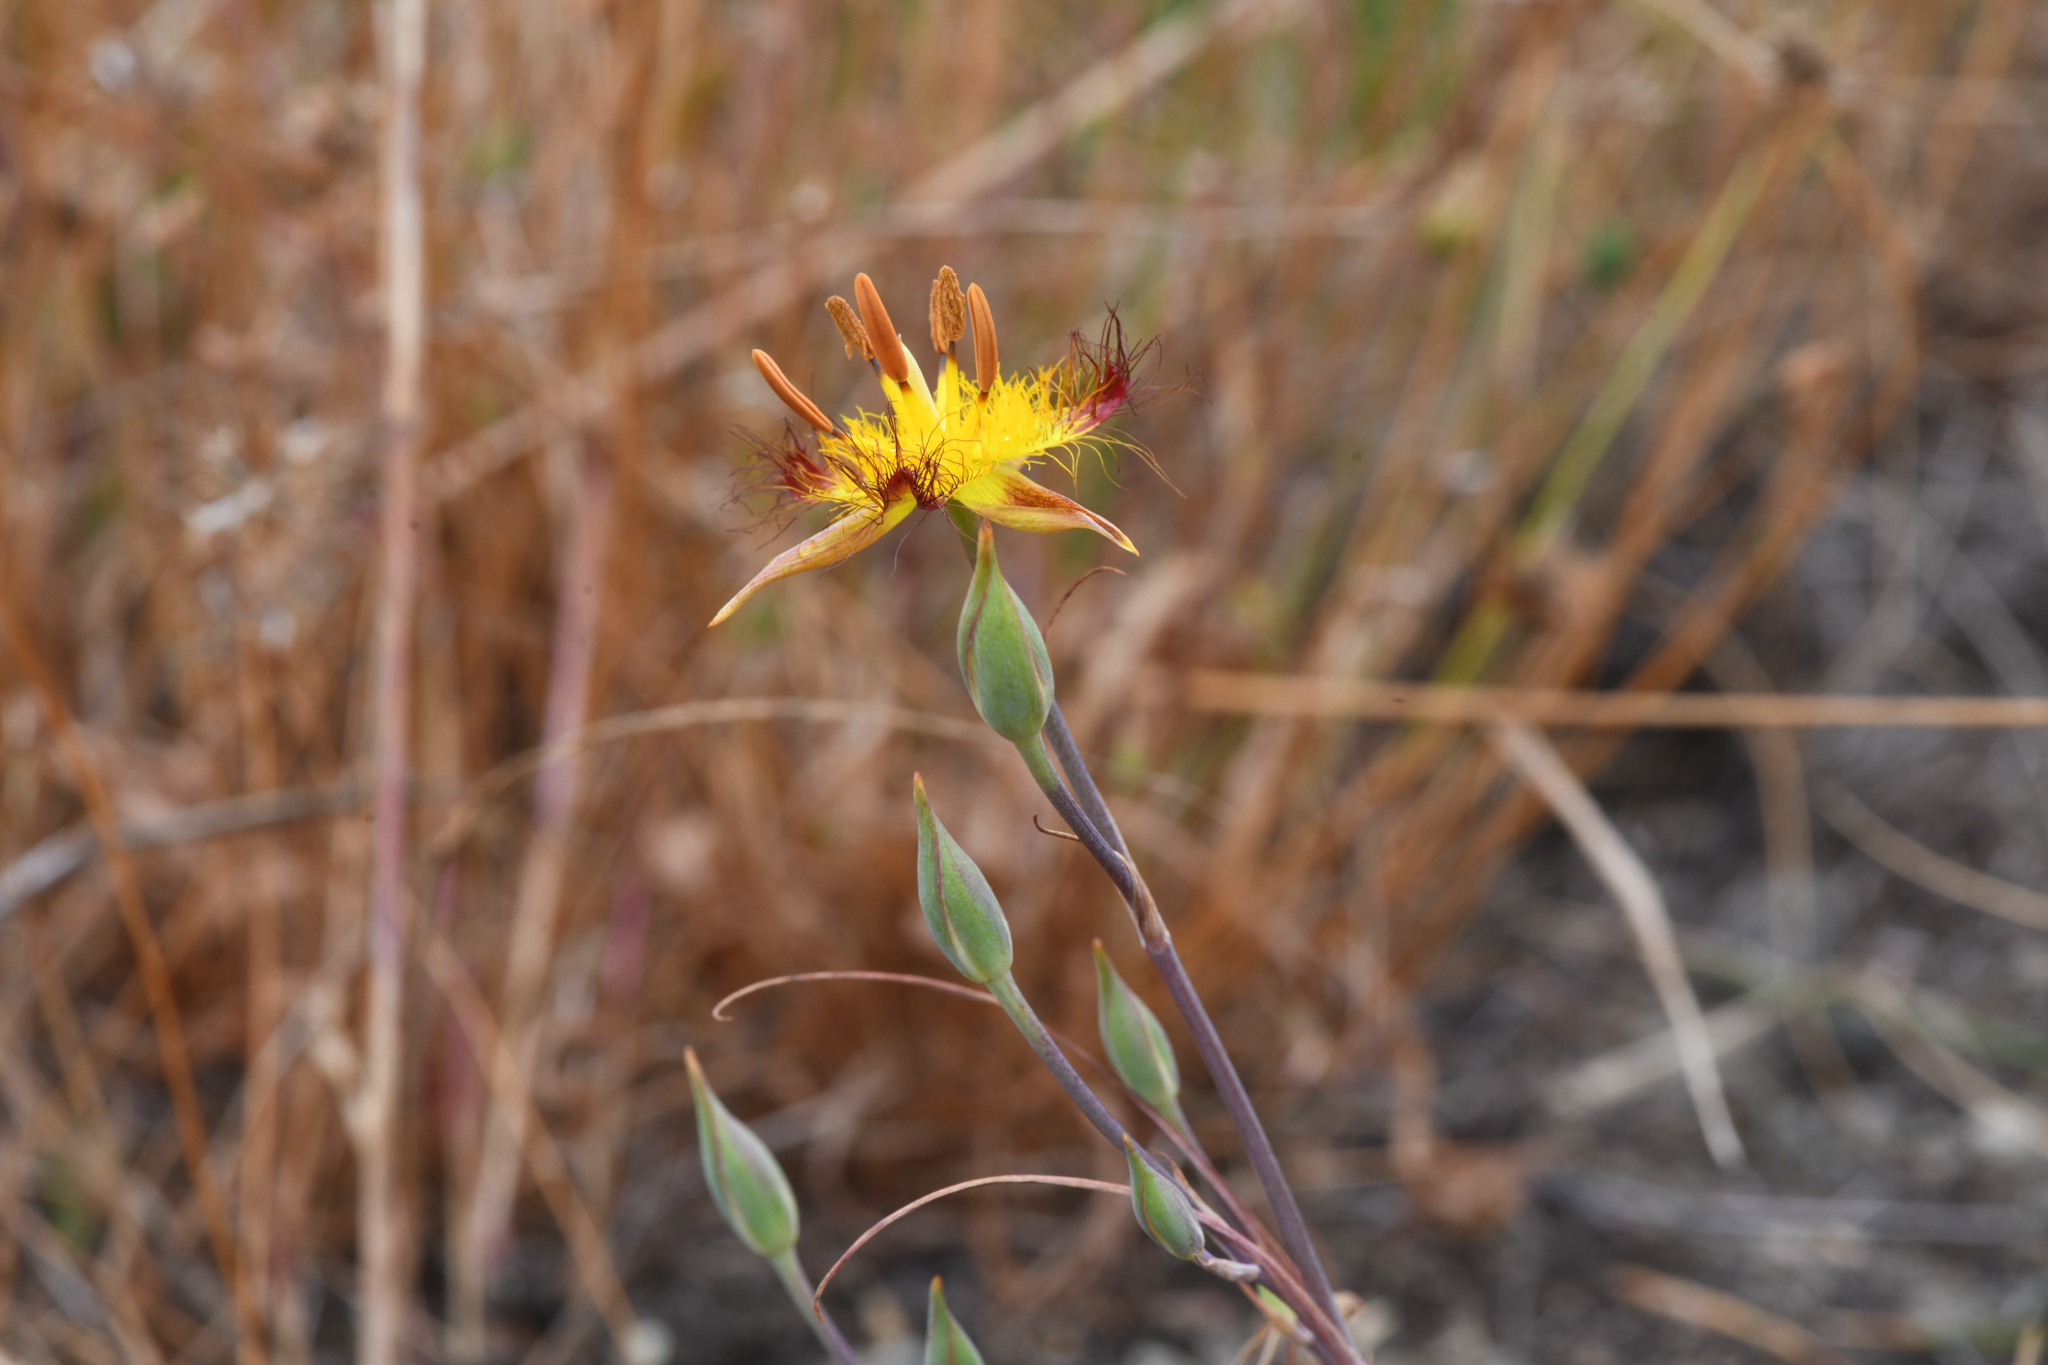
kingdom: Plantae
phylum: Tracheophyta
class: Liliopsida
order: Liliales
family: Liliaceae
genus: Calochortus
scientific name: Calochortus obispoensis
